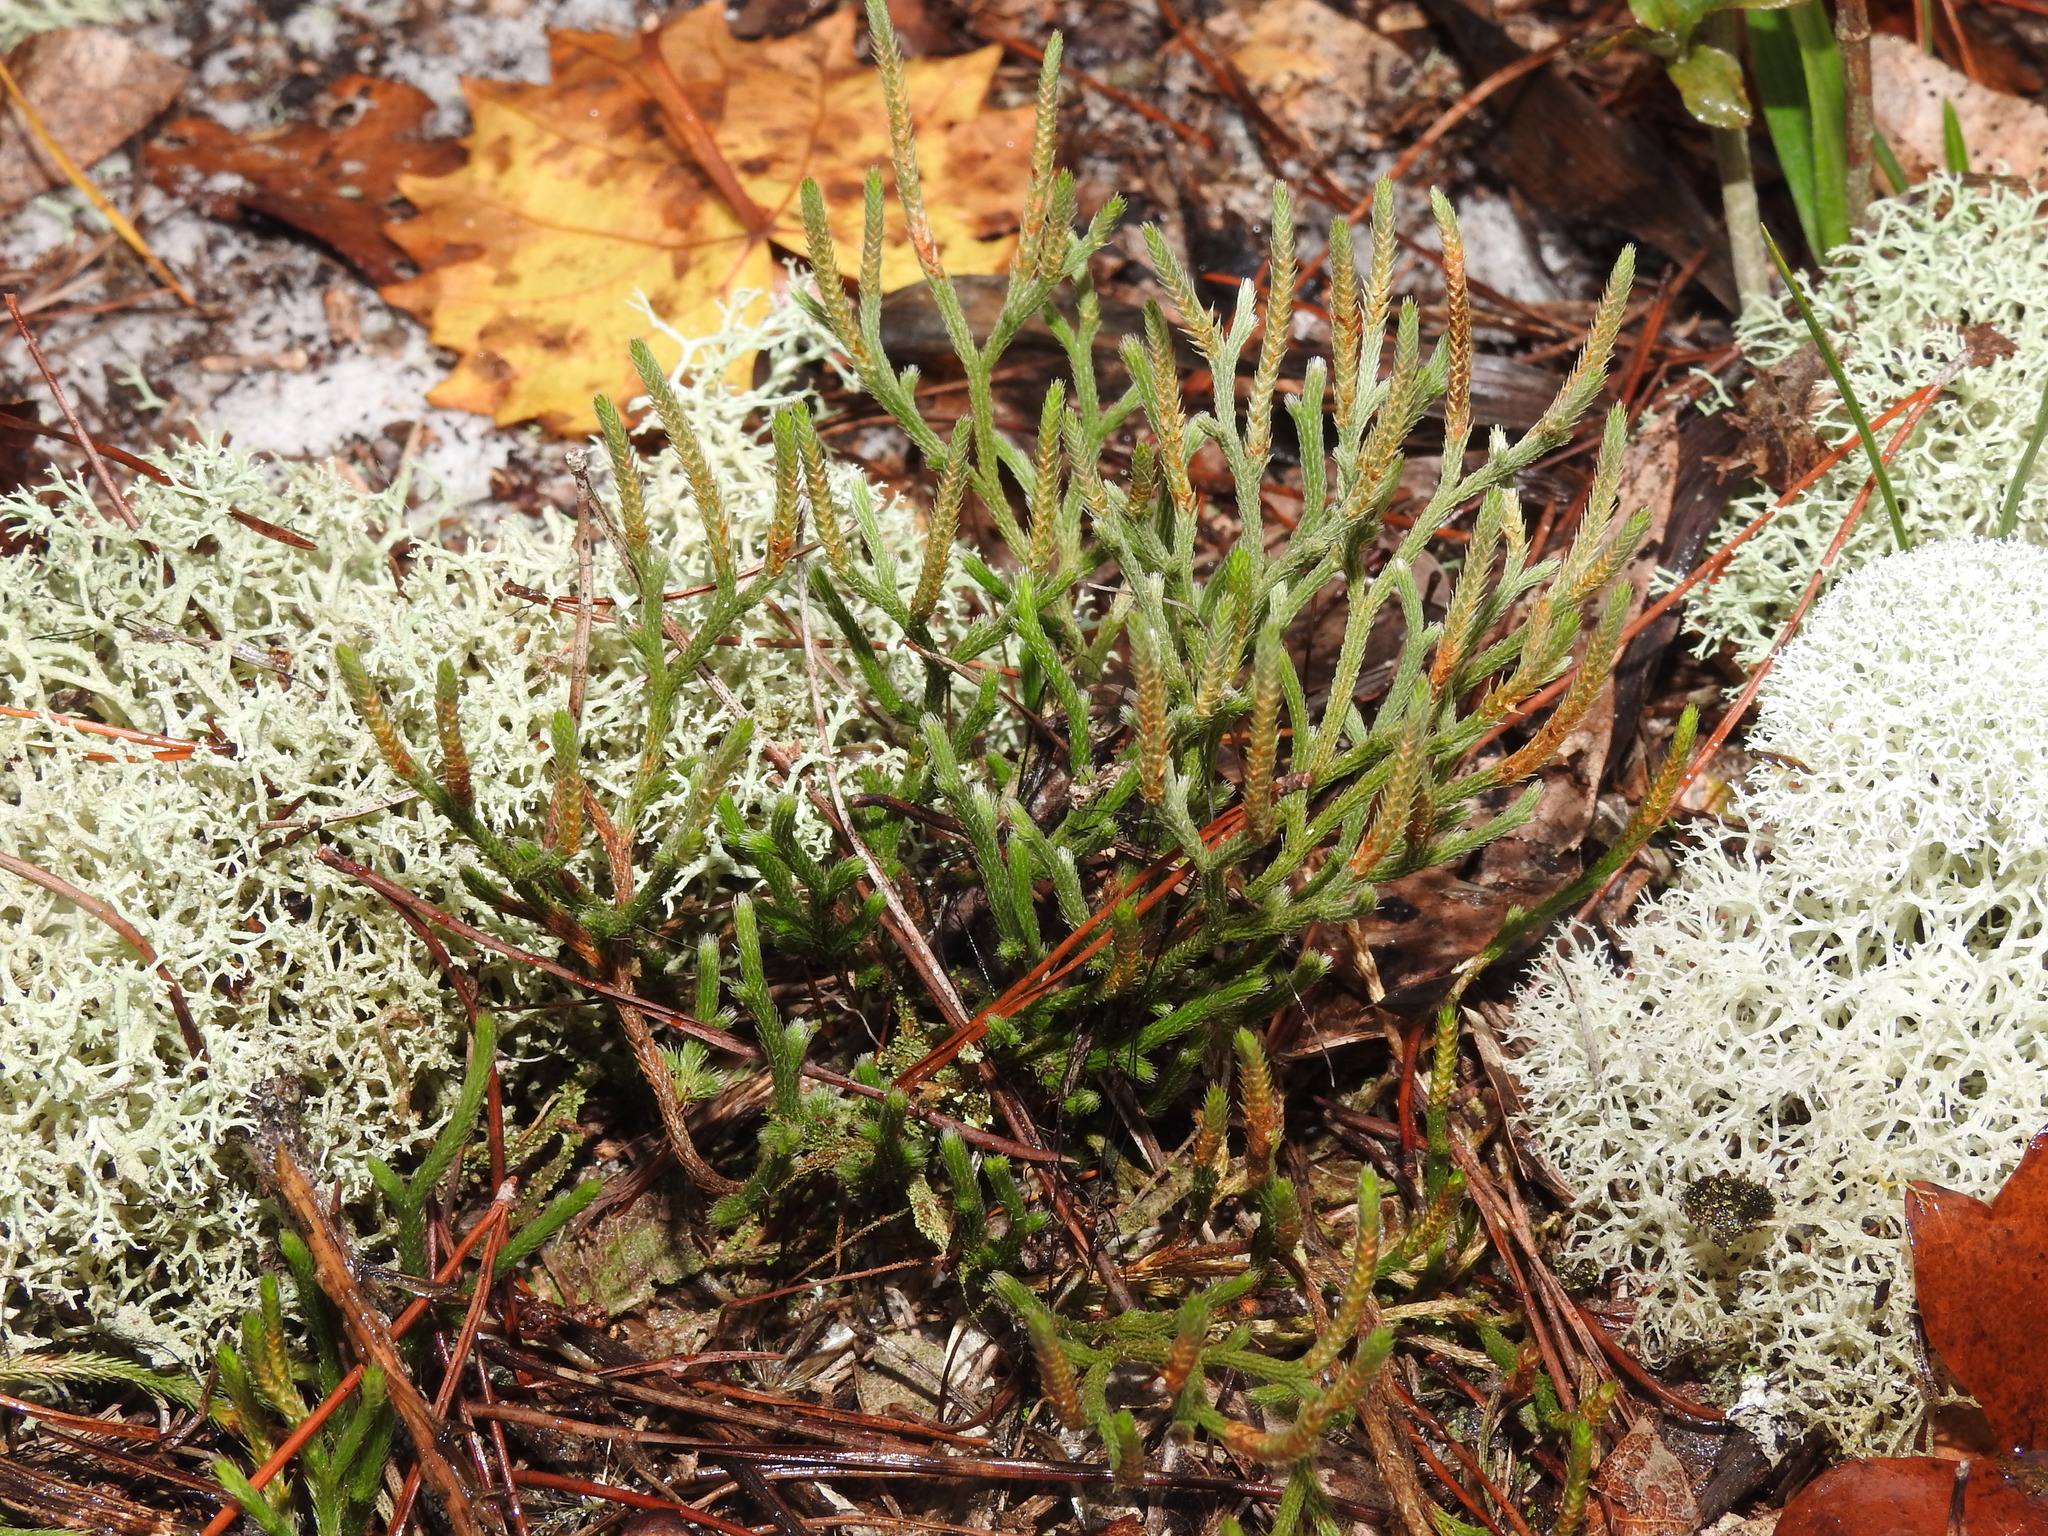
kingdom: Plantae
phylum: Tracheophyta
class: Lycopodiopsida
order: Selaginellales
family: Selaginellaceae
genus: Selaginella
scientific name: Selaginella arenicola
